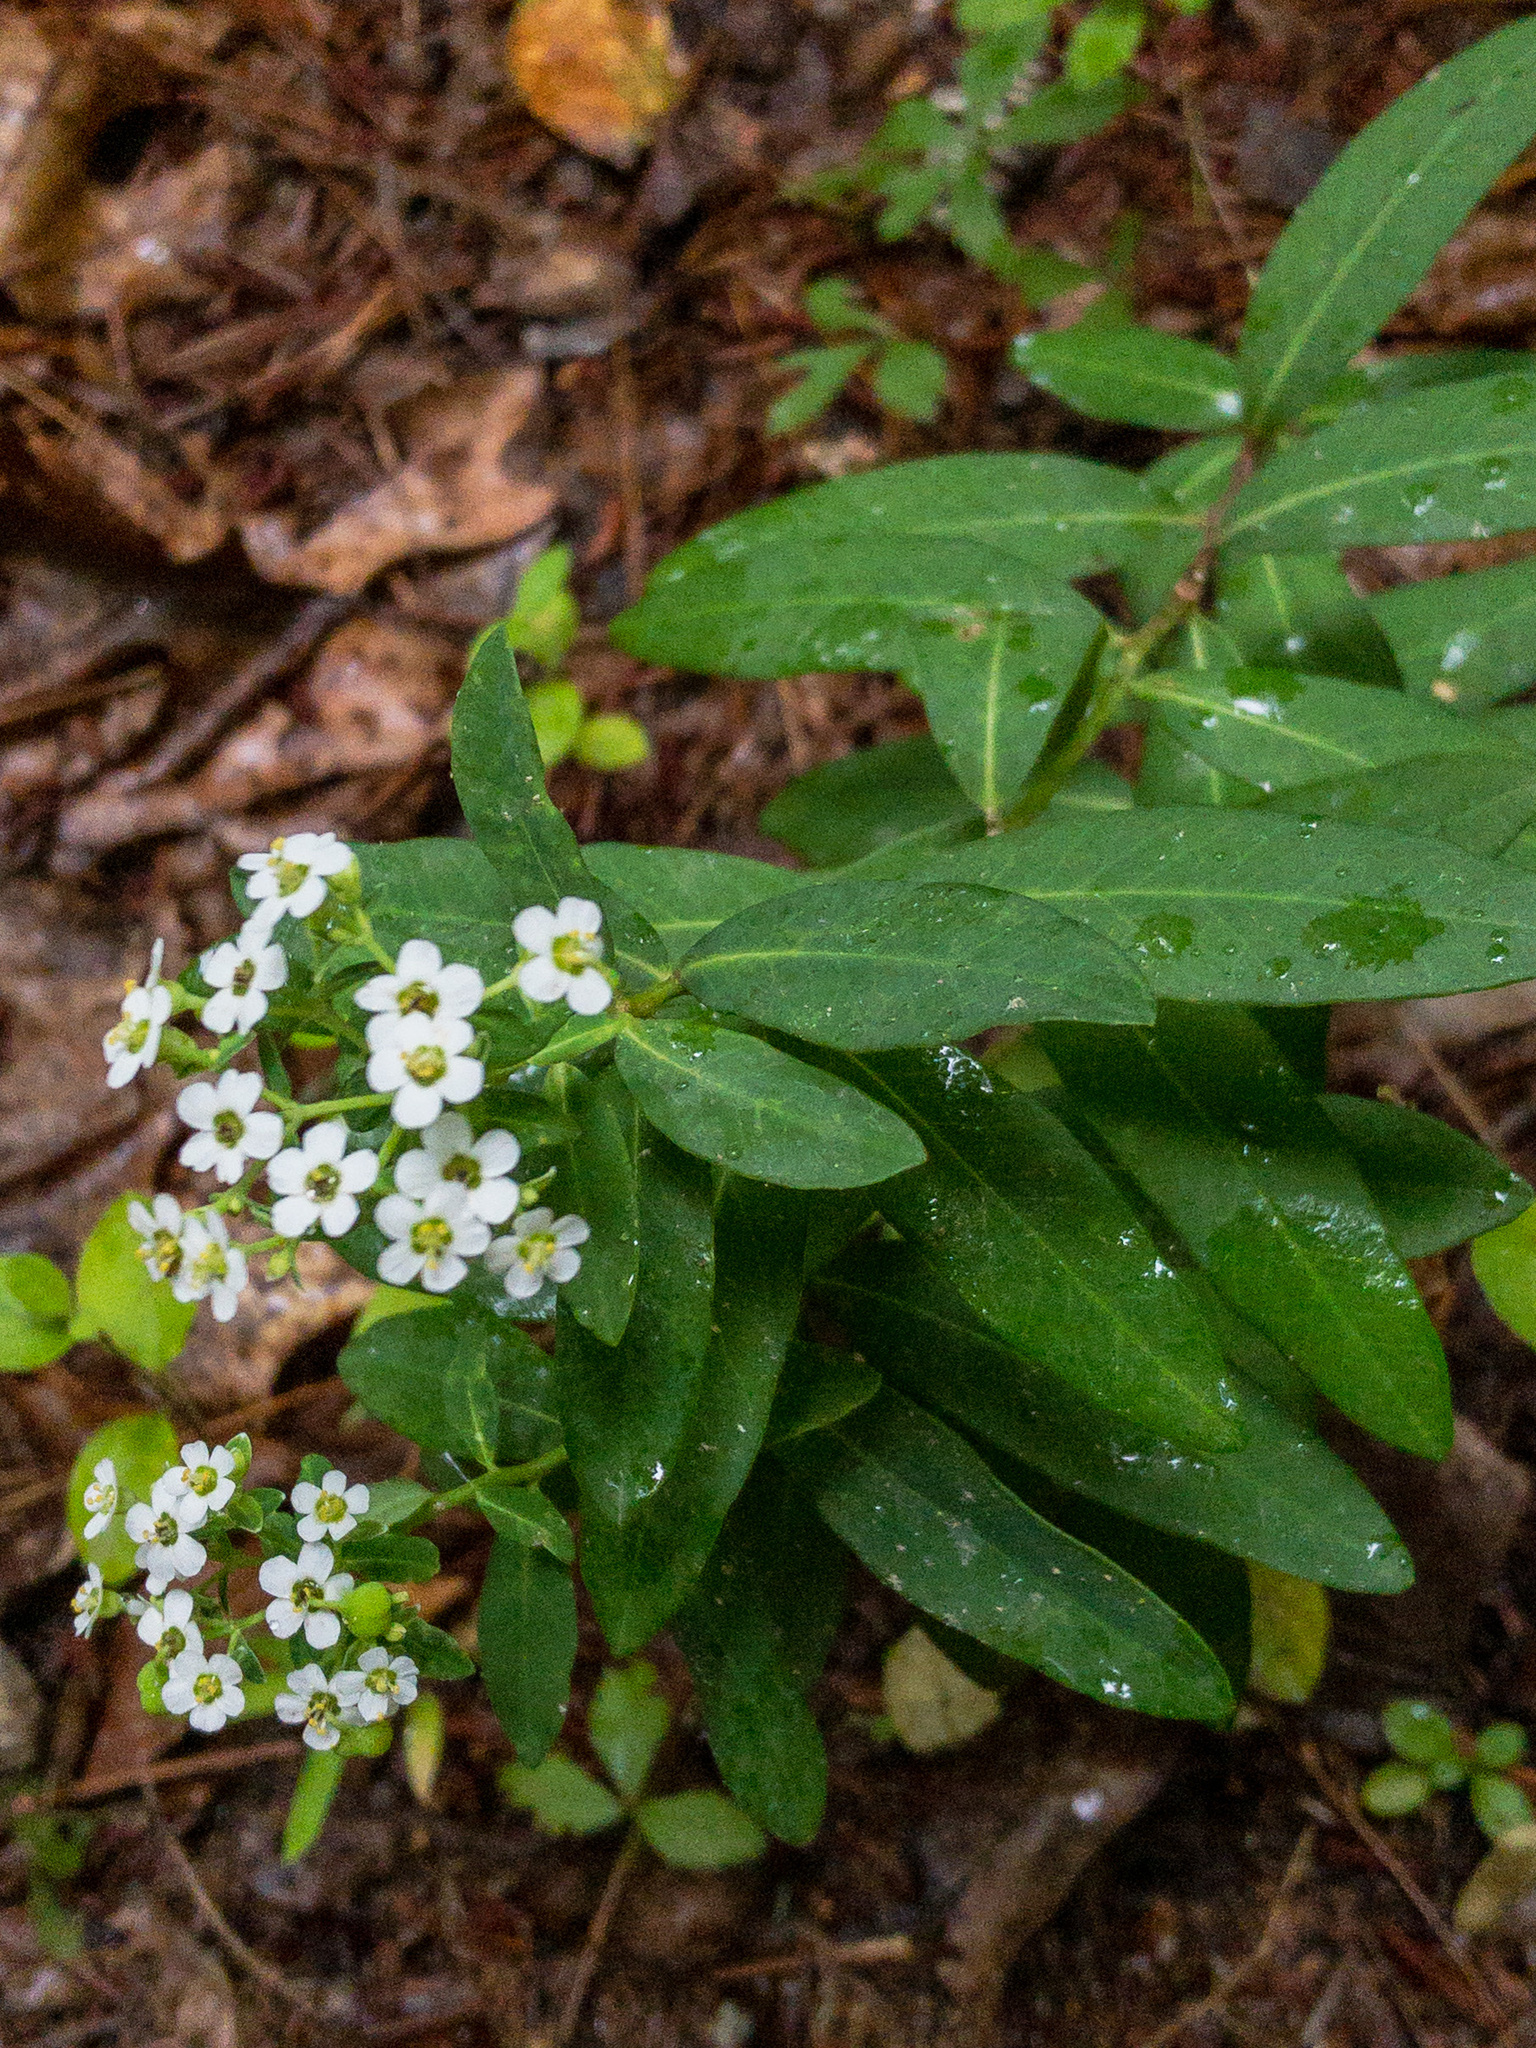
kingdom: Plantae
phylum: Tracheophyta
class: Magnoliopsida
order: Malpighiales
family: Euphorbiaceae
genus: Euphorbia
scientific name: Euphorbia corollata
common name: Flowering spurge
